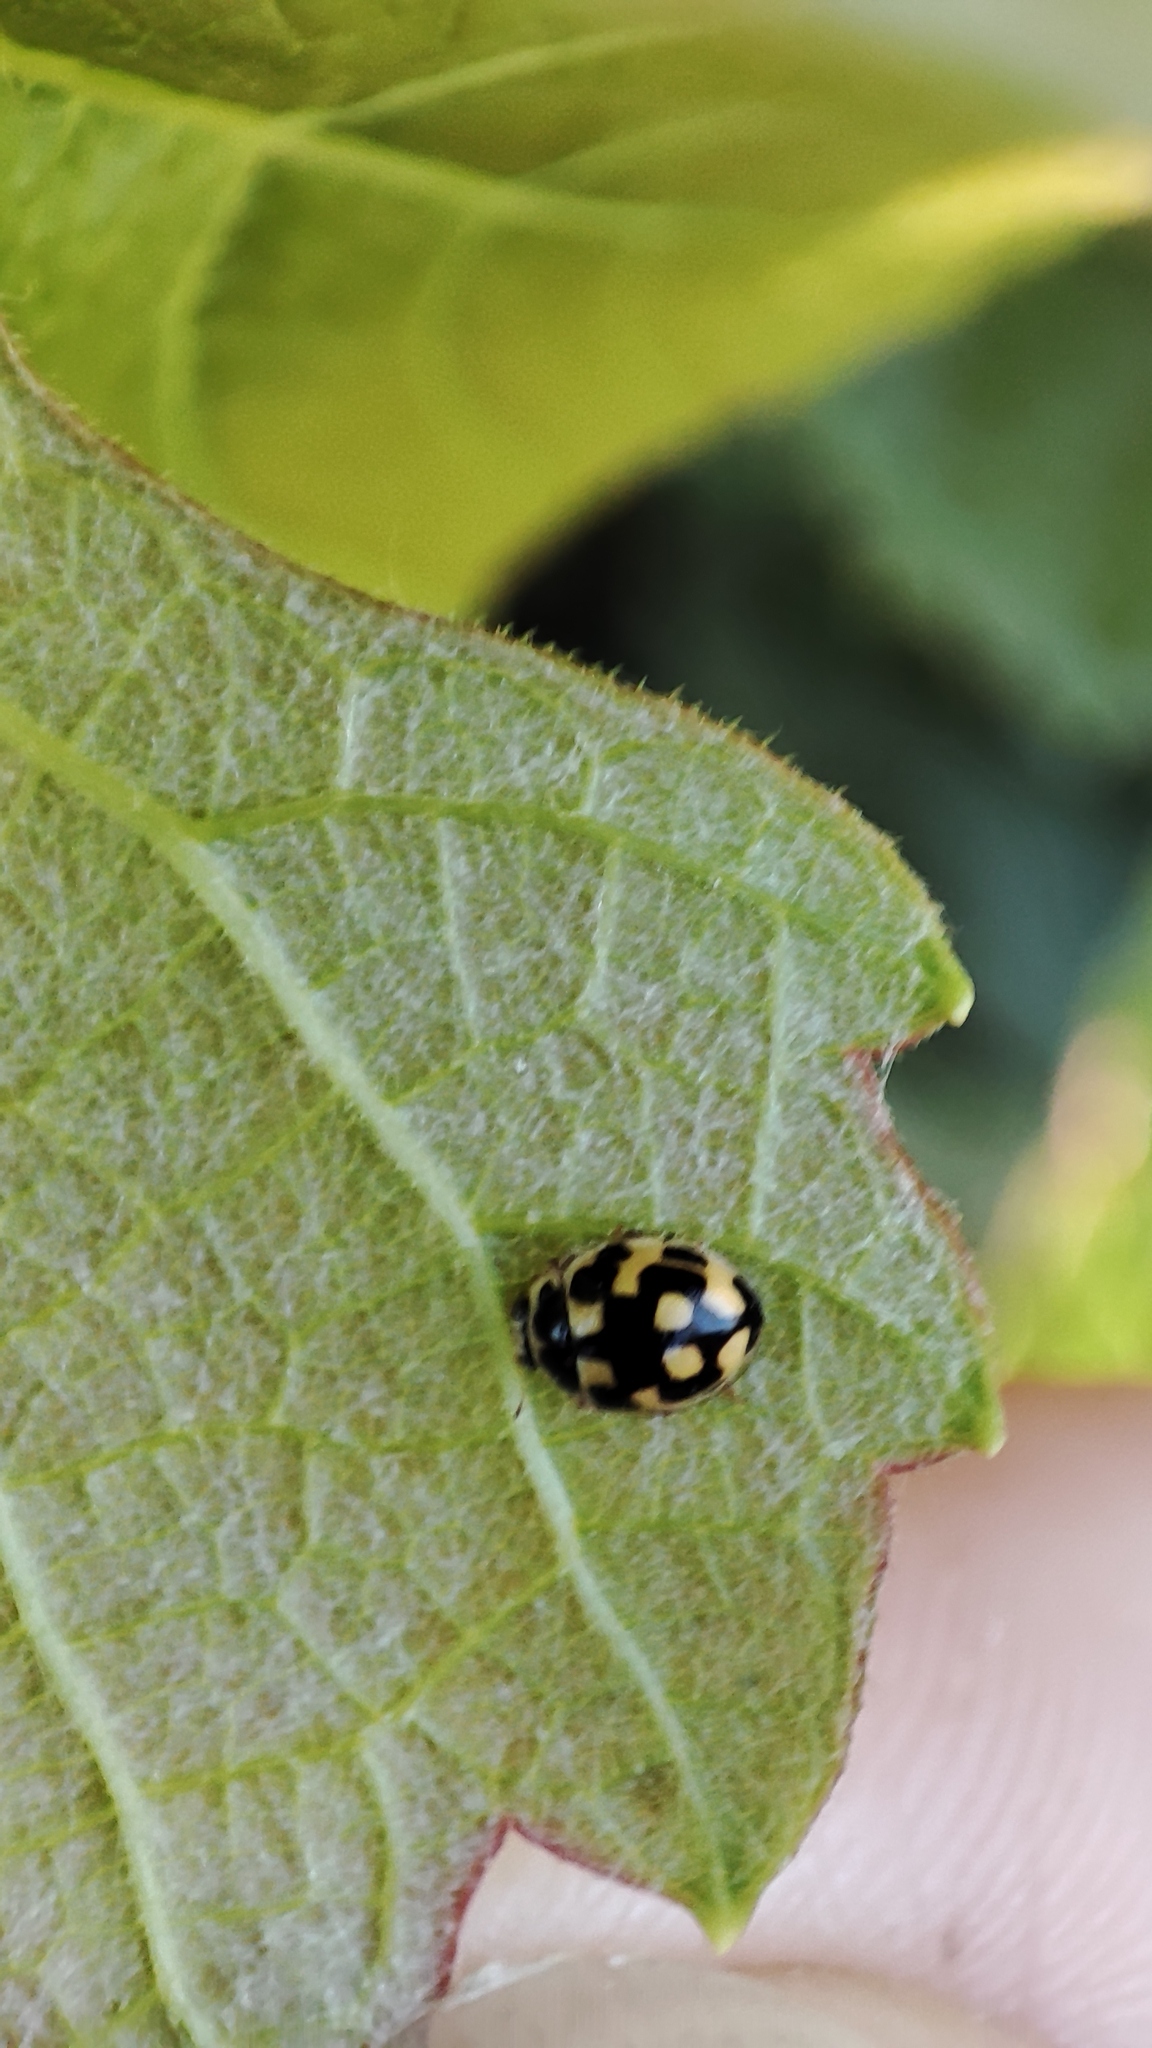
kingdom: Animalia
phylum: Arthropoda
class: Insecta
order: Coleoptera
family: Coccinellidae
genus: Propylaea
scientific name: Propylaea quatuordecimpunctata
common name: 14-spotted ladybird beetle
